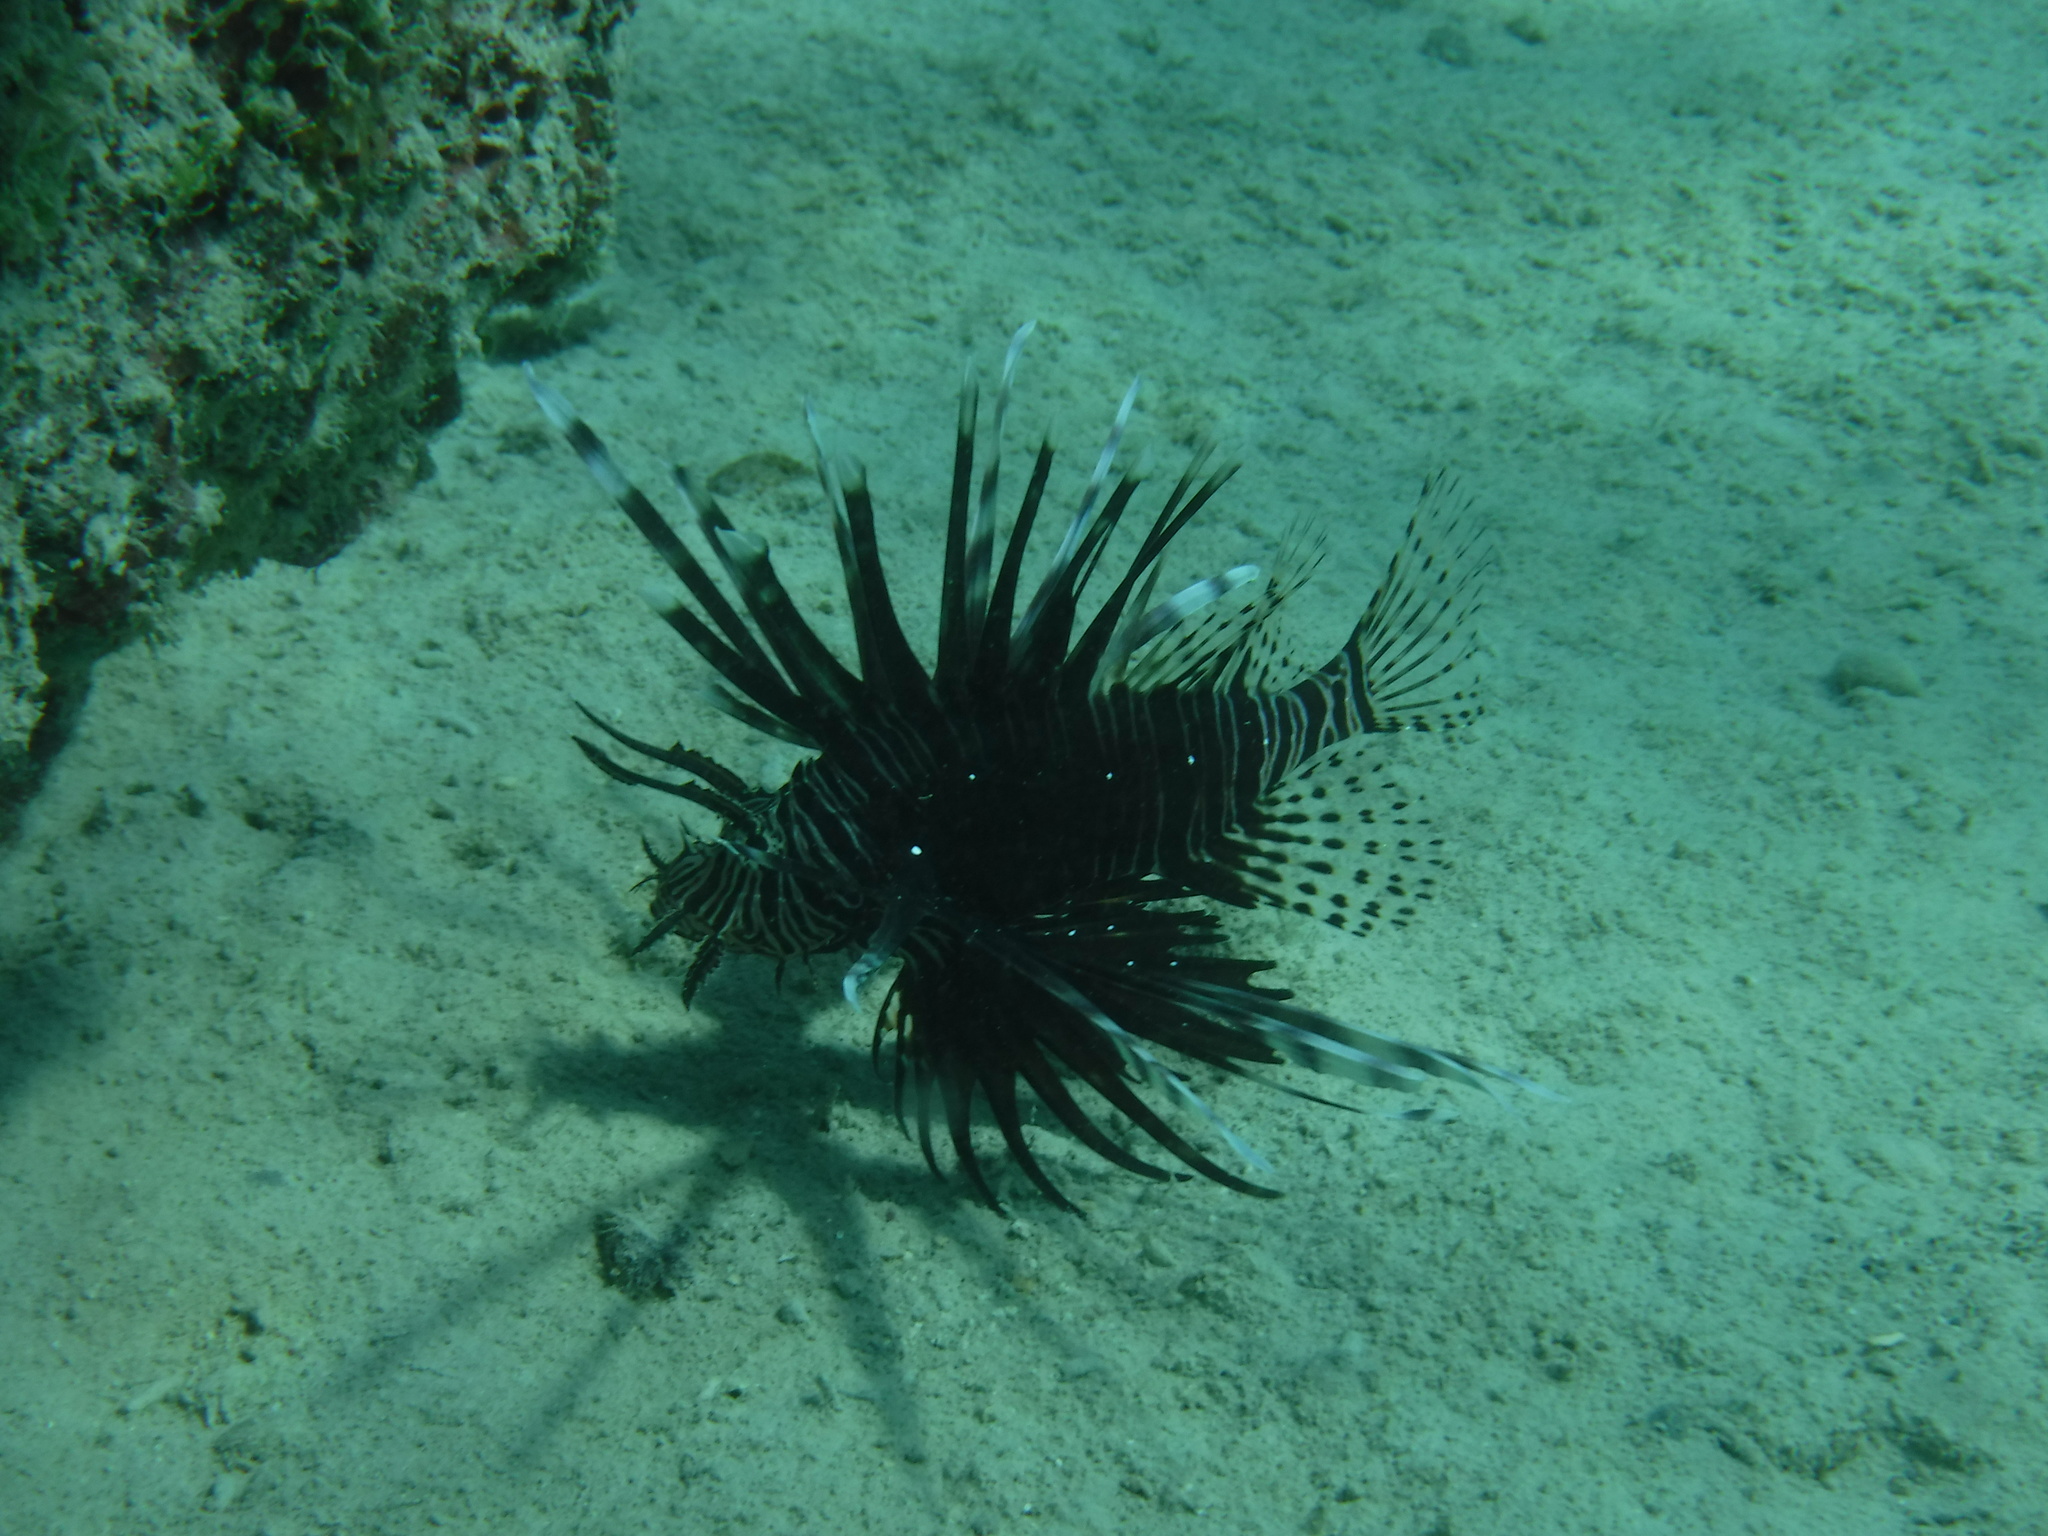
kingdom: Animalia
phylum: Chordata
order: Scorpaeniformes
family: Scorpaenidae
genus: Pterois
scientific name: Pterois volitans
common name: Lionfish
